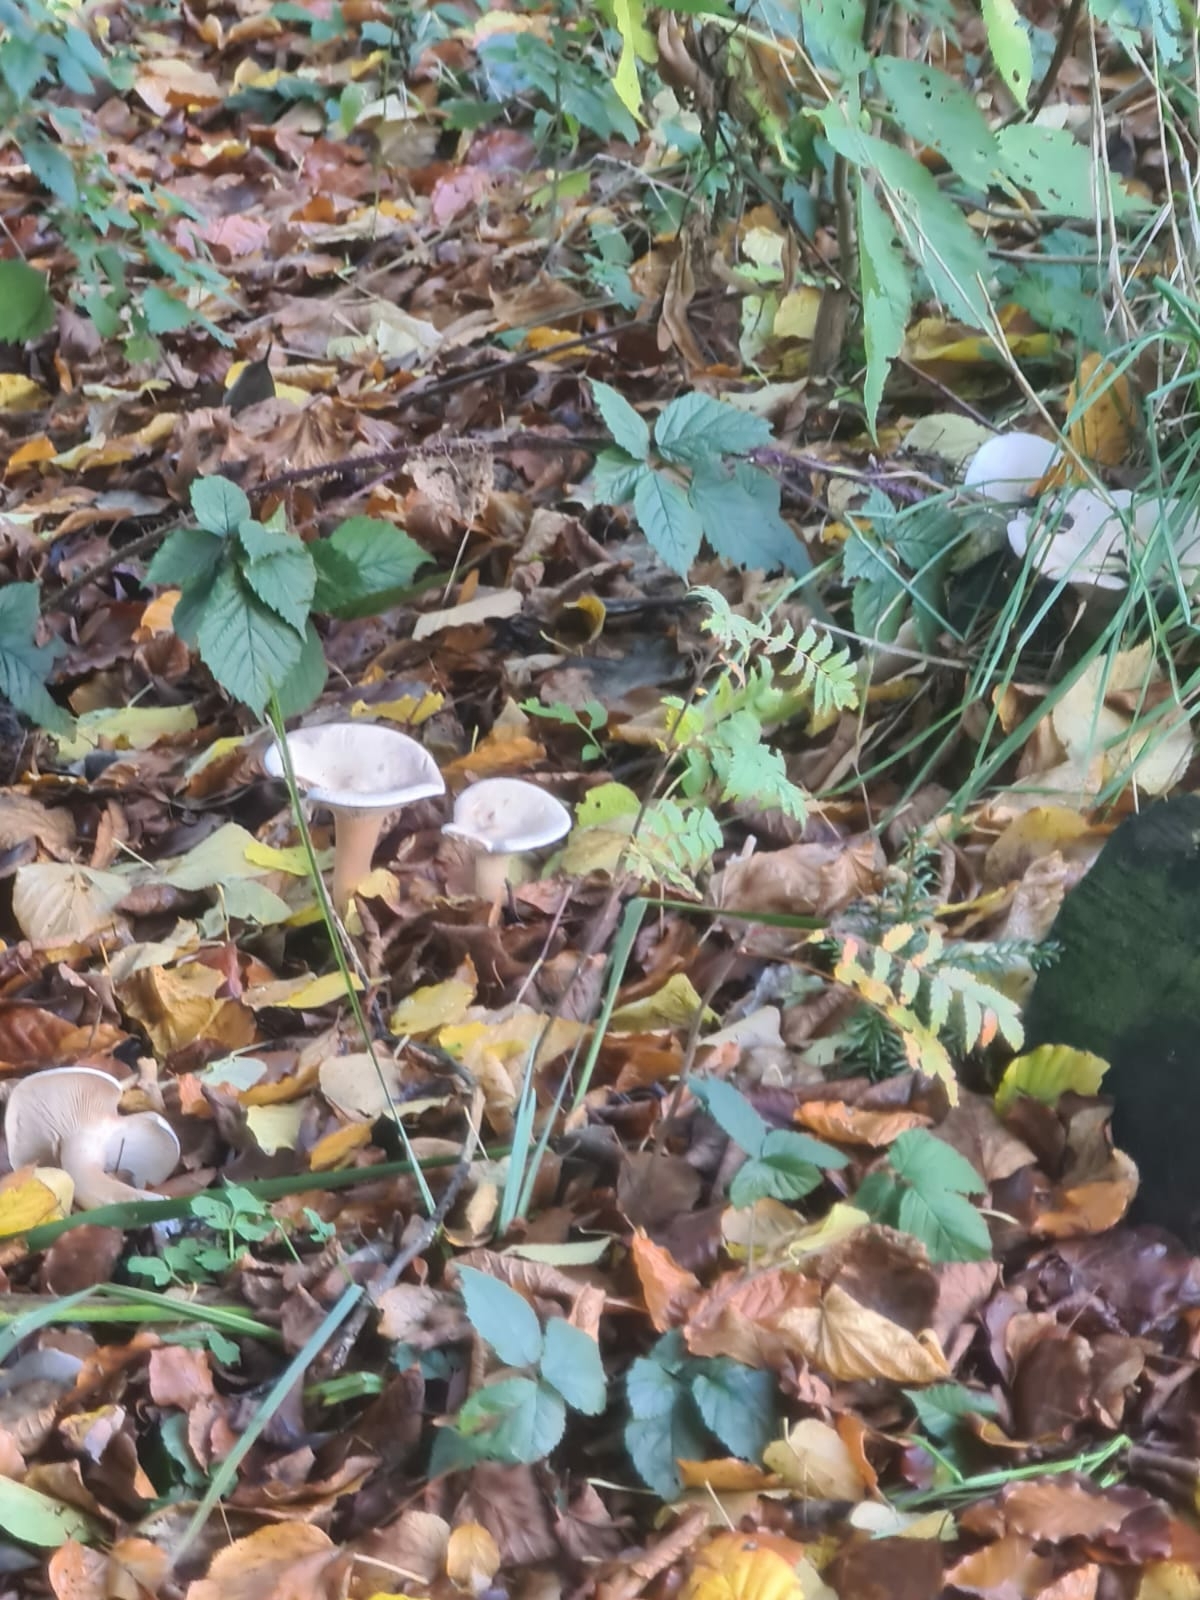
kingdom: Fungi
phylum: Basidiomycota
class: Agaricomycetes
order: Agaricales
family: Tricholomataceae
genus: Infundibulicybe
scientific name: Infundibulicybe geotropa
